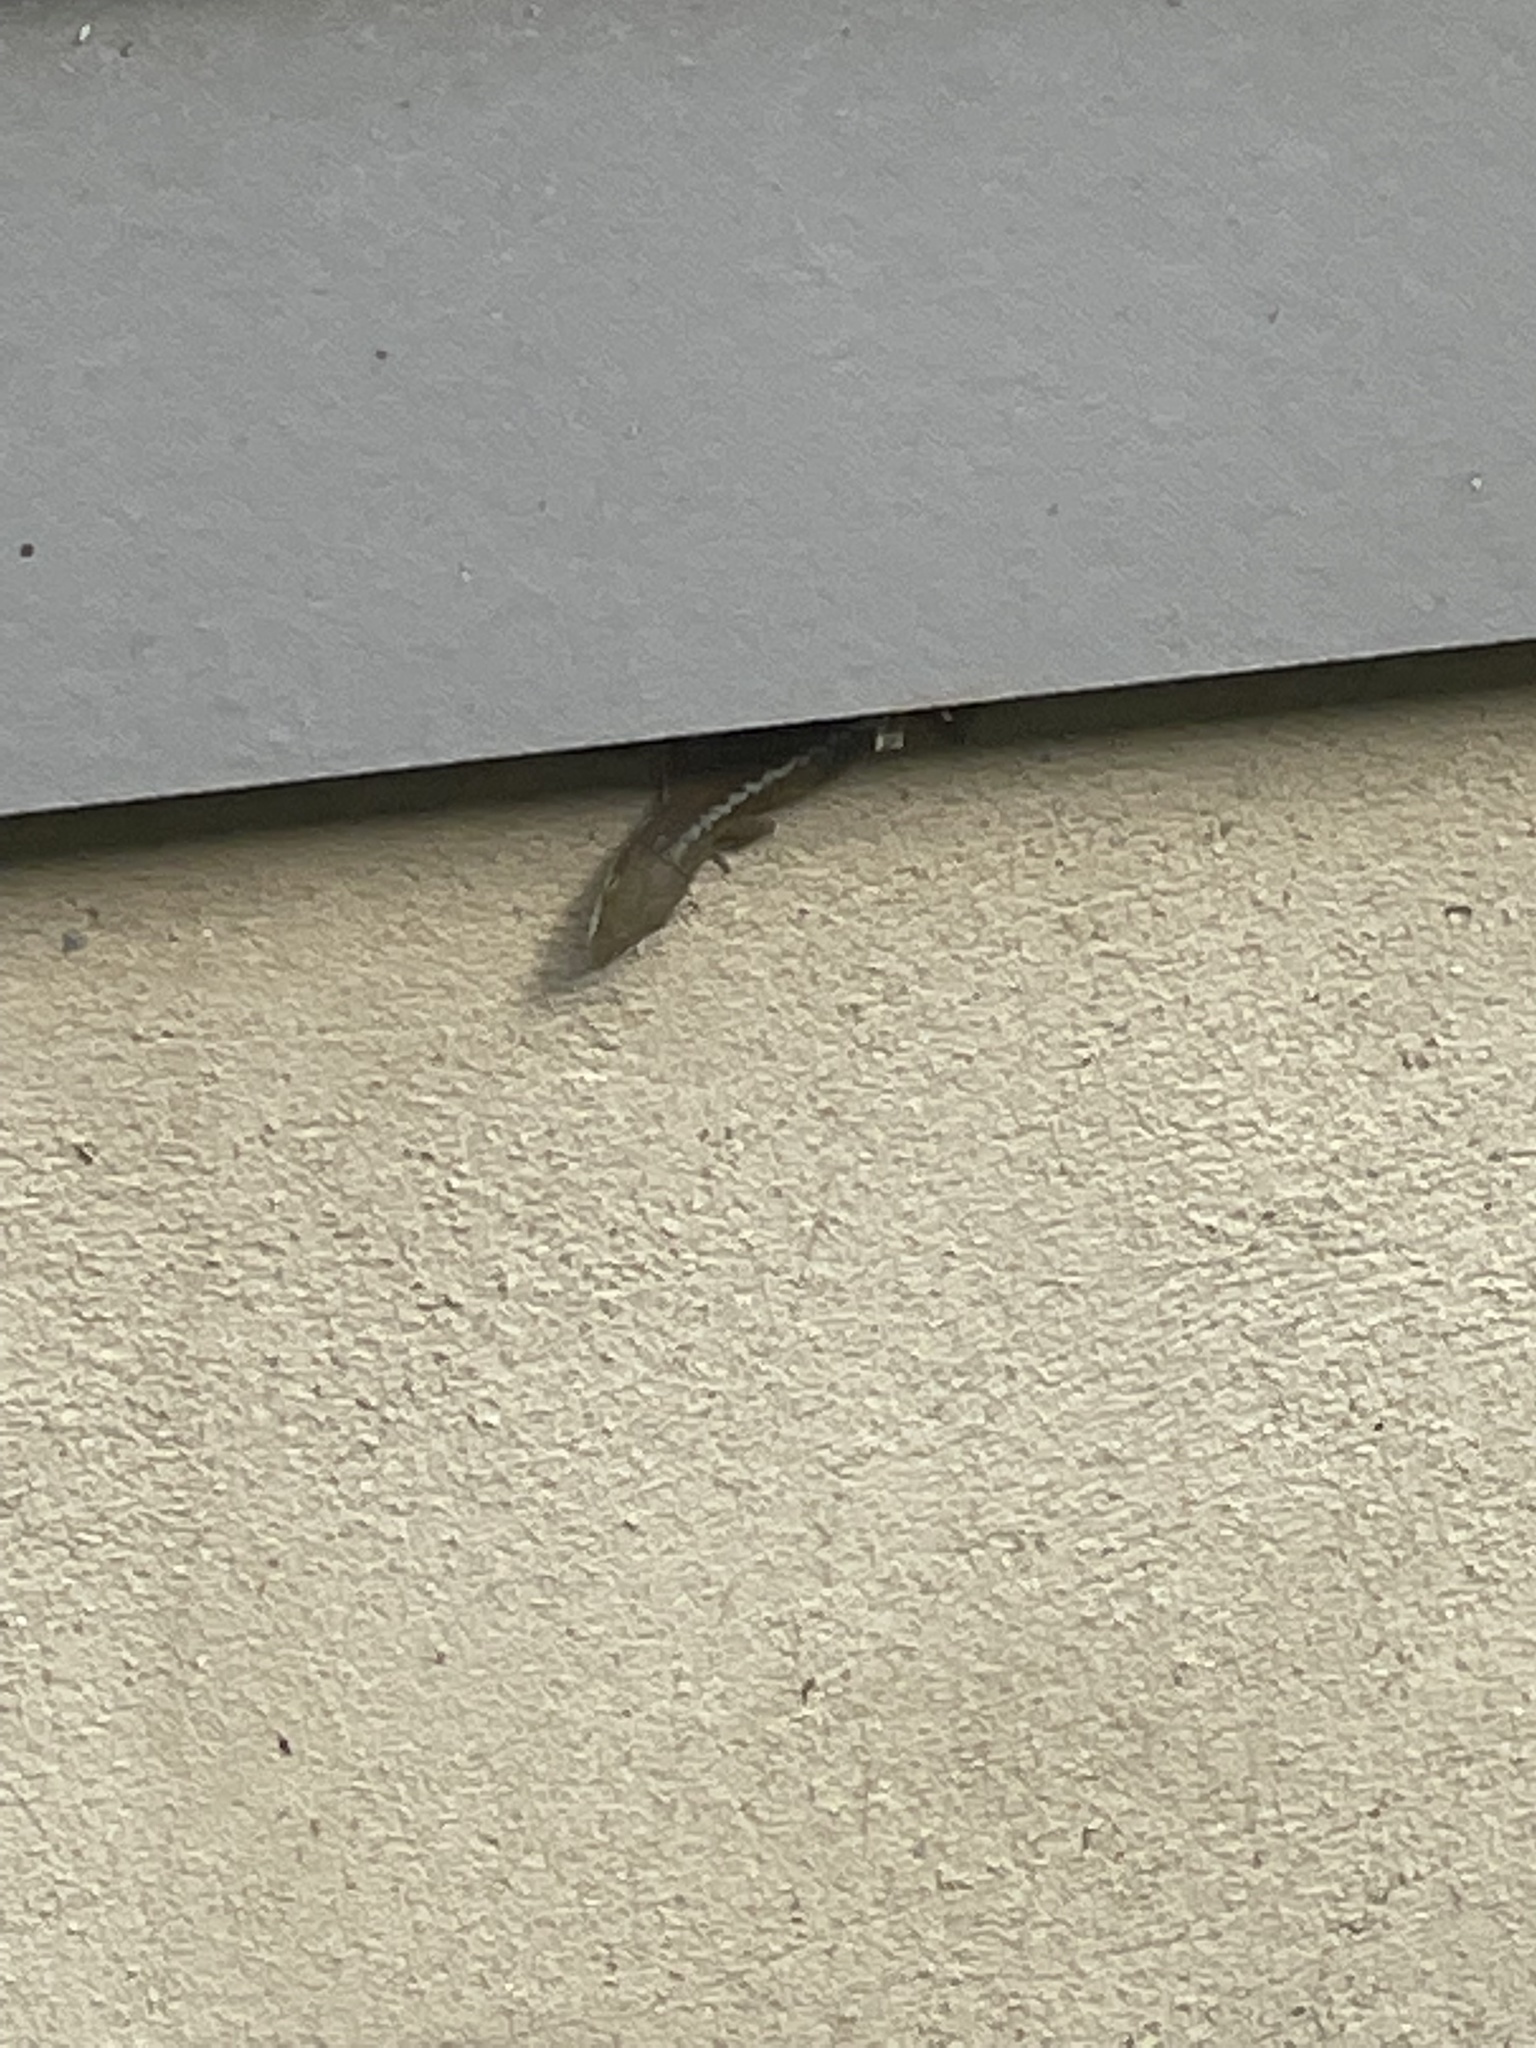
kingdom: Animalia
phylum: Chordata
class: Squamata
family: Dactyloidae
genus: Anolis
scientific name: Anolis carolinensis
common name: Green anole
